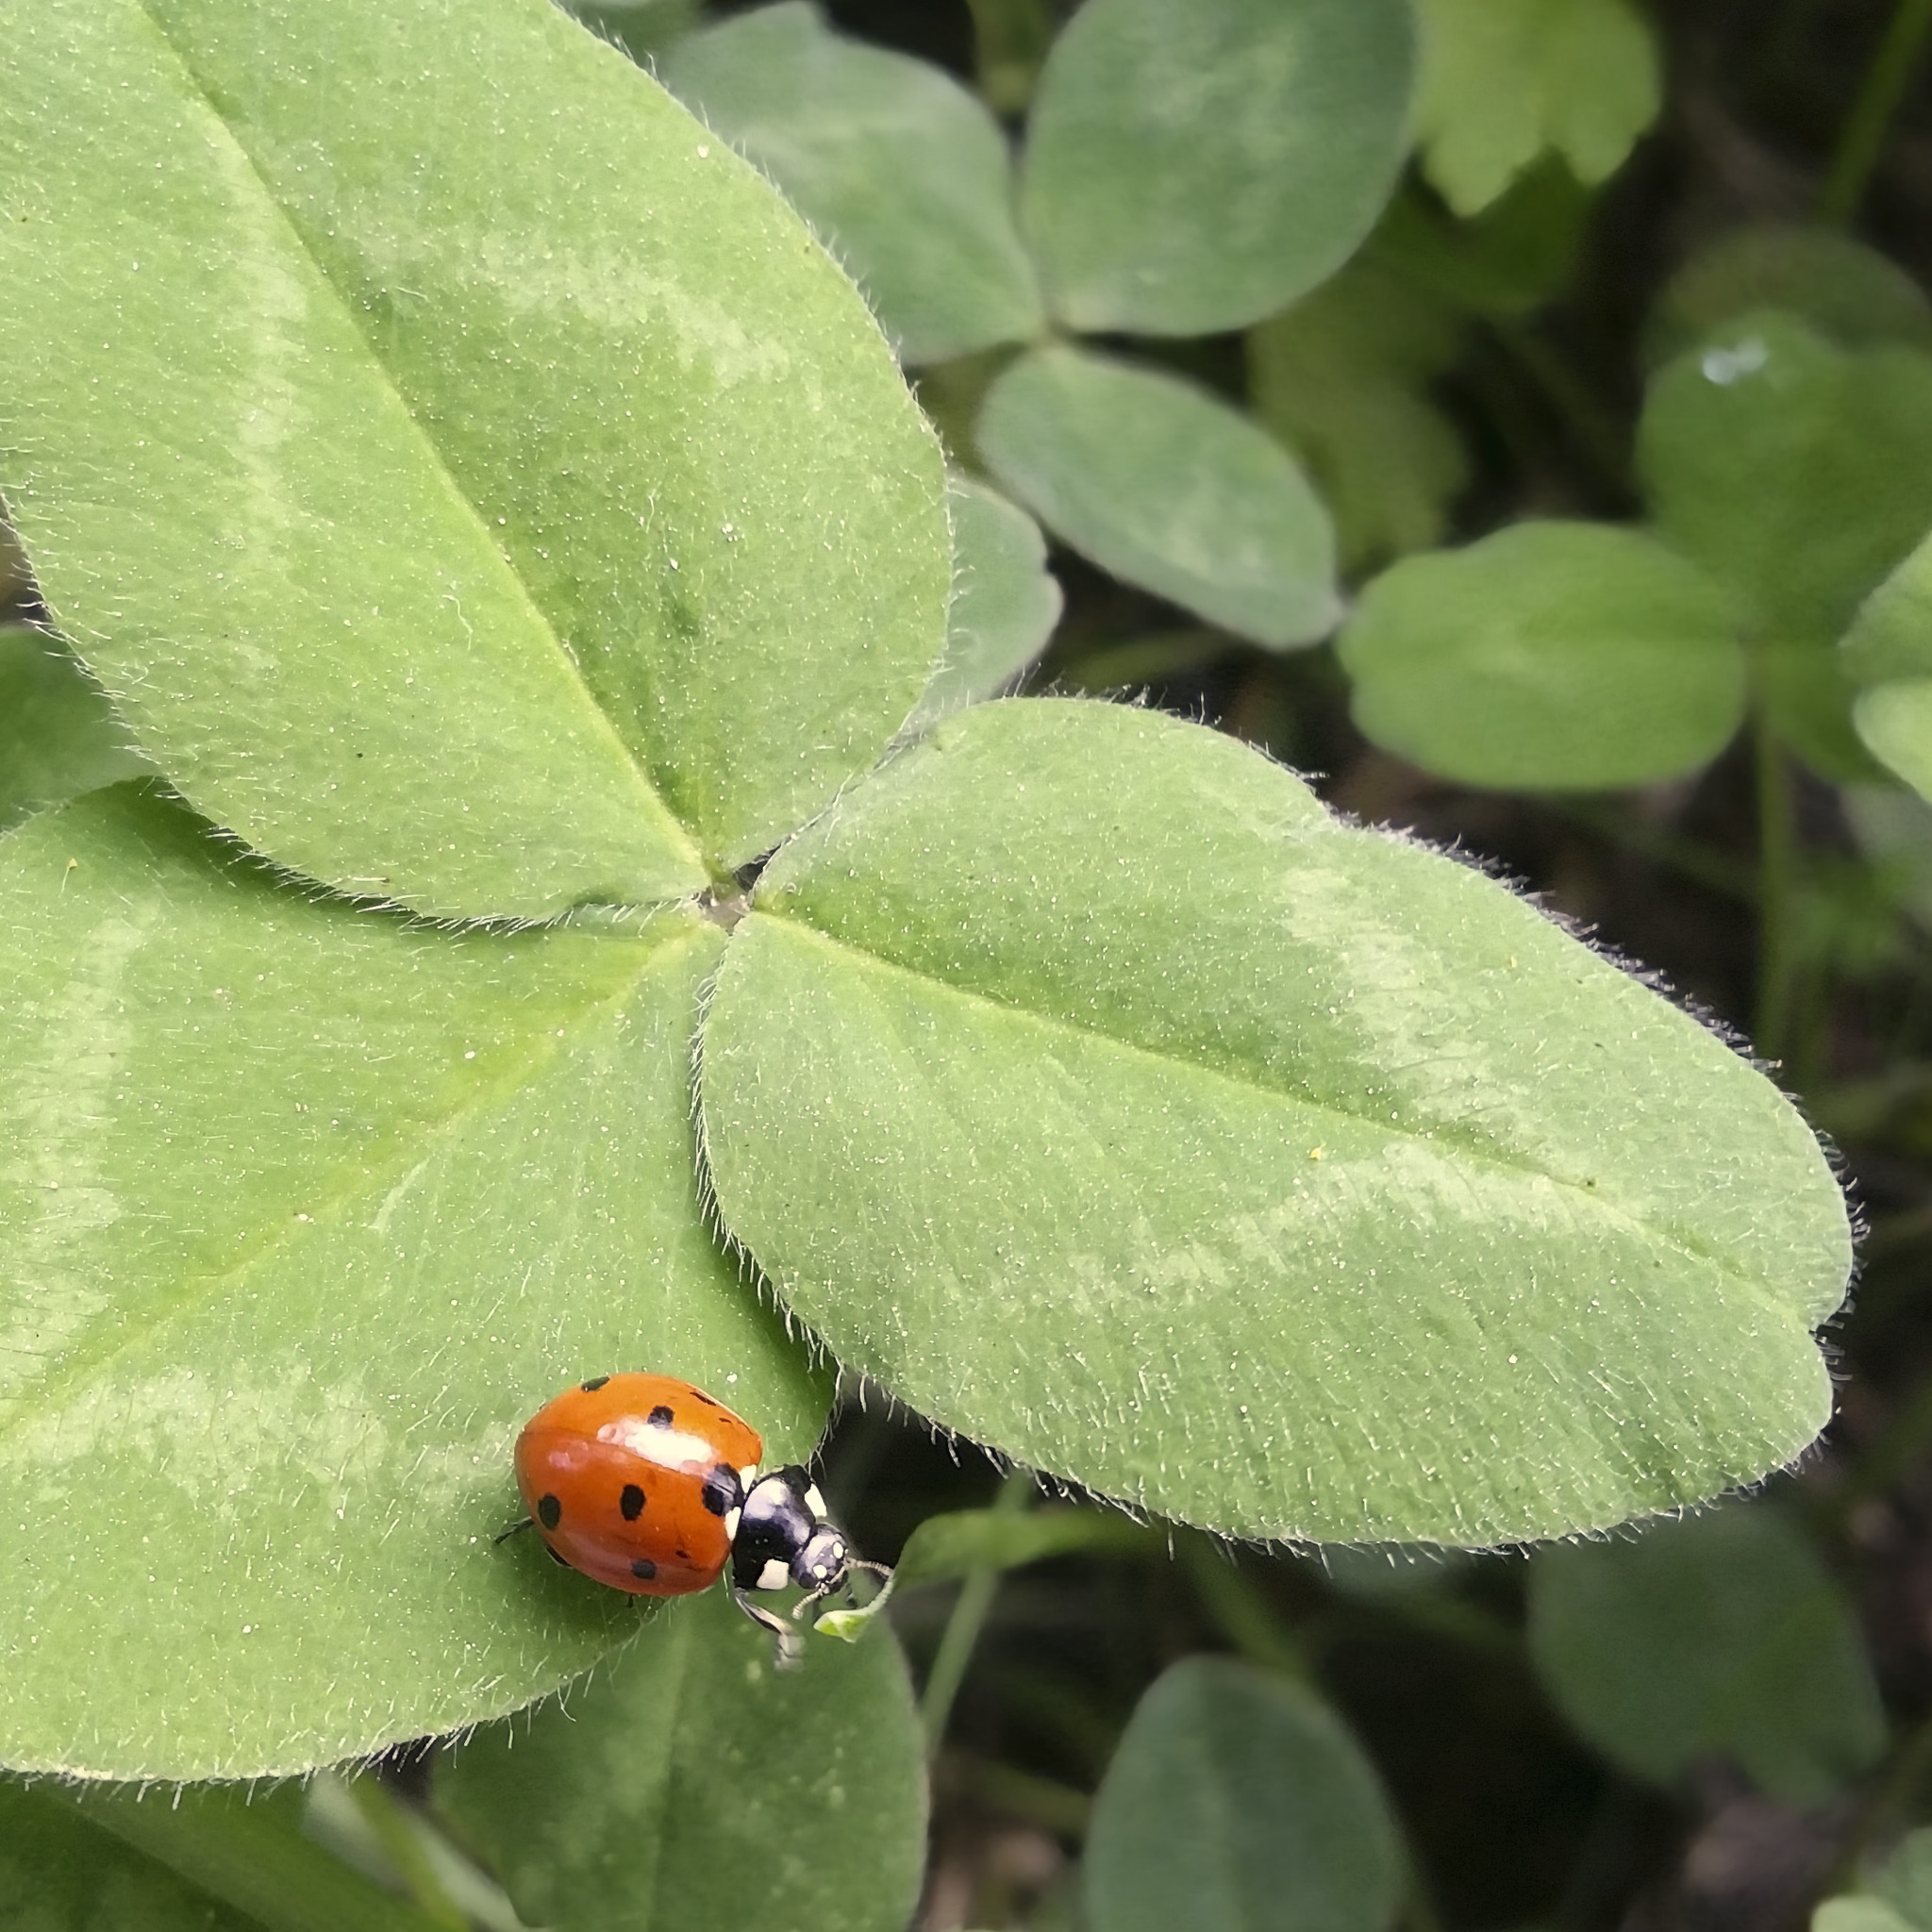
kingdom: Animalia
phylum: Arthropoda
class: Insecta
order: Coleoptera
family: Coccinellidae
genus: Coccinella
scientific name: Coccinella septempunctata
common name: Sevenspotted lady beetle
